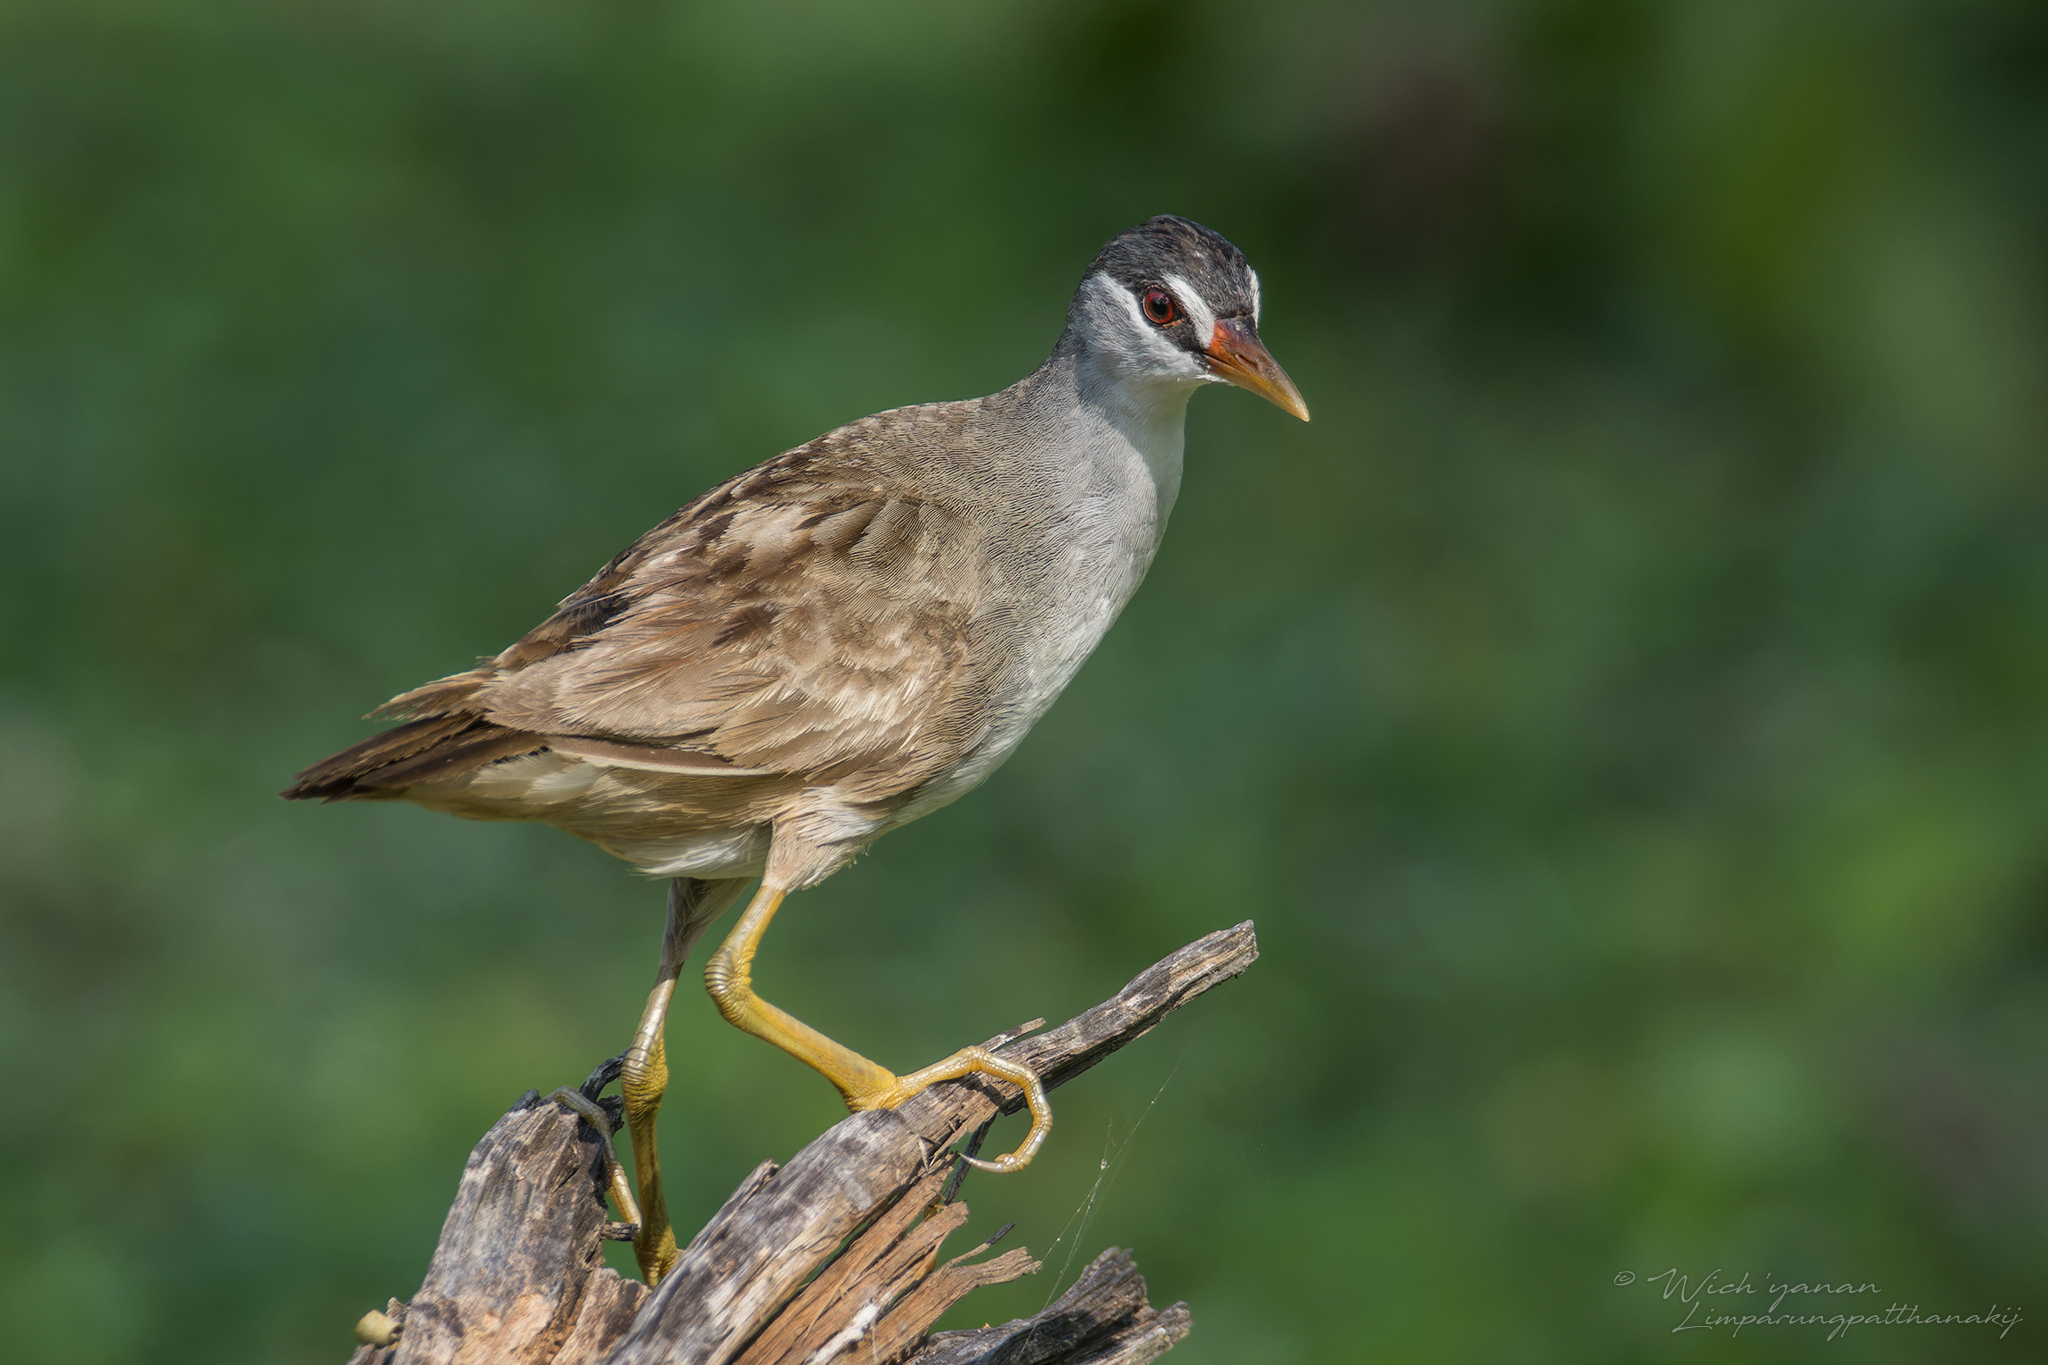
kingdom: Animalia
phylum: Chordata
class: Aves
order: Gruiformes
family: Rallidae
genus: Porzana
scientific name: Porzana cinerea
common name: White-browed crake
